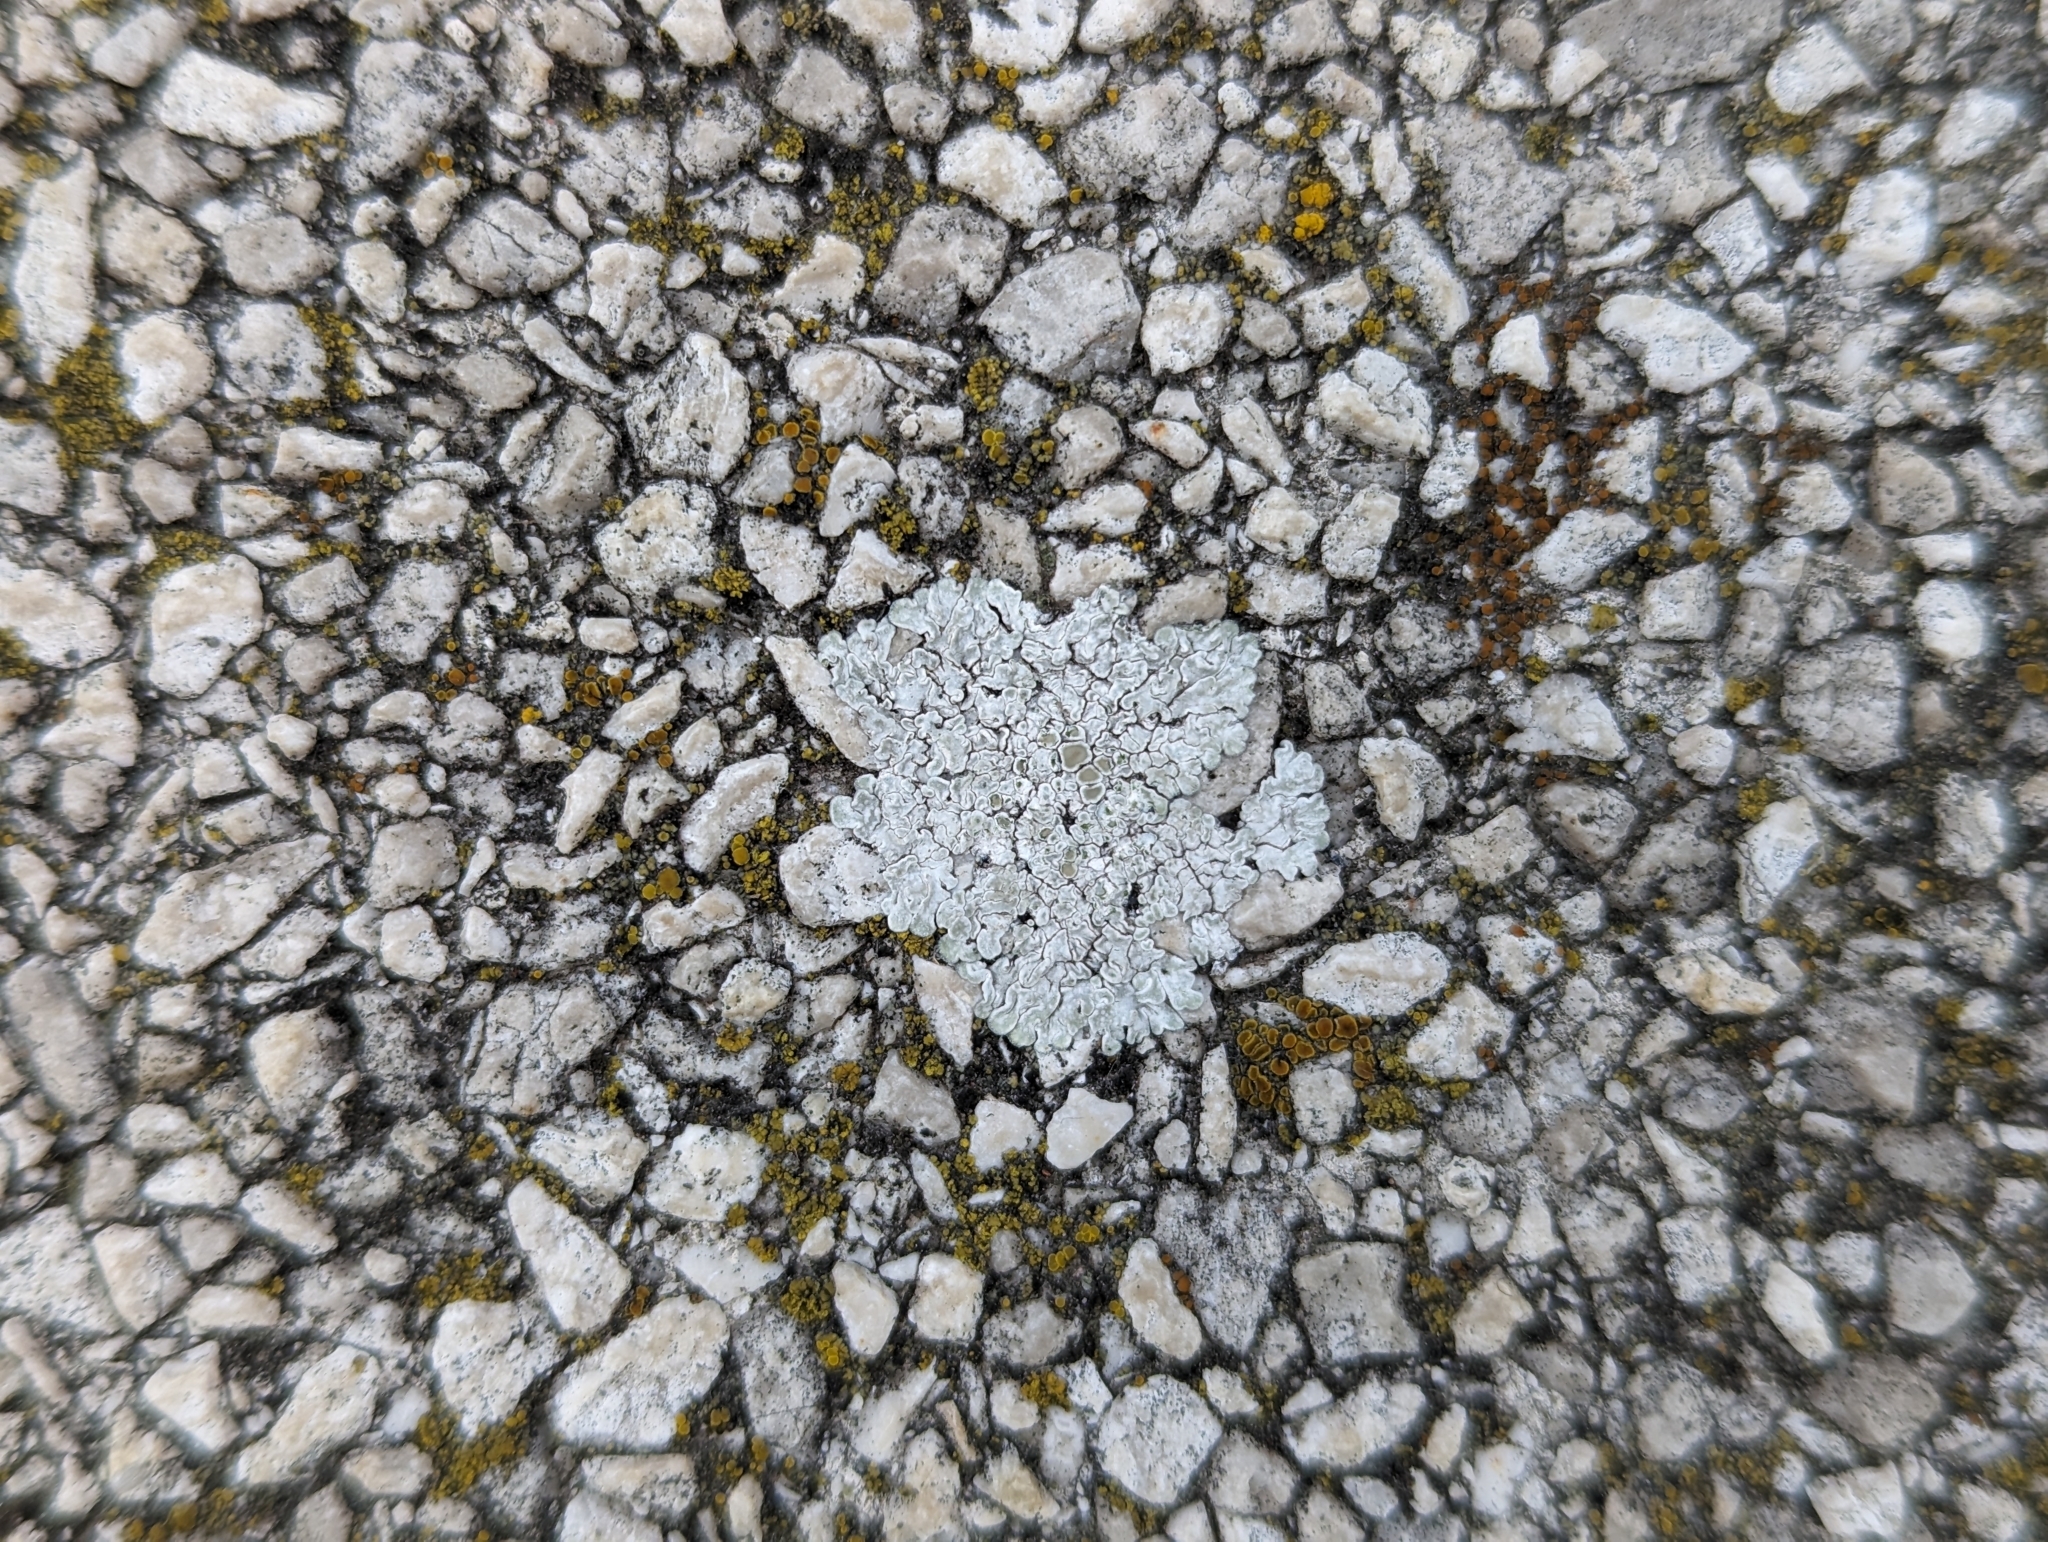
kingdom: Fungi
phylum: Ascomycota
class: Lecanoromycetes
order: Lecanorales
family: Lecanoraceae
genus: Protoparmeliopsis
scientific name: Protoparmeliopsis muralis
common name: Stonewall rim lichen
